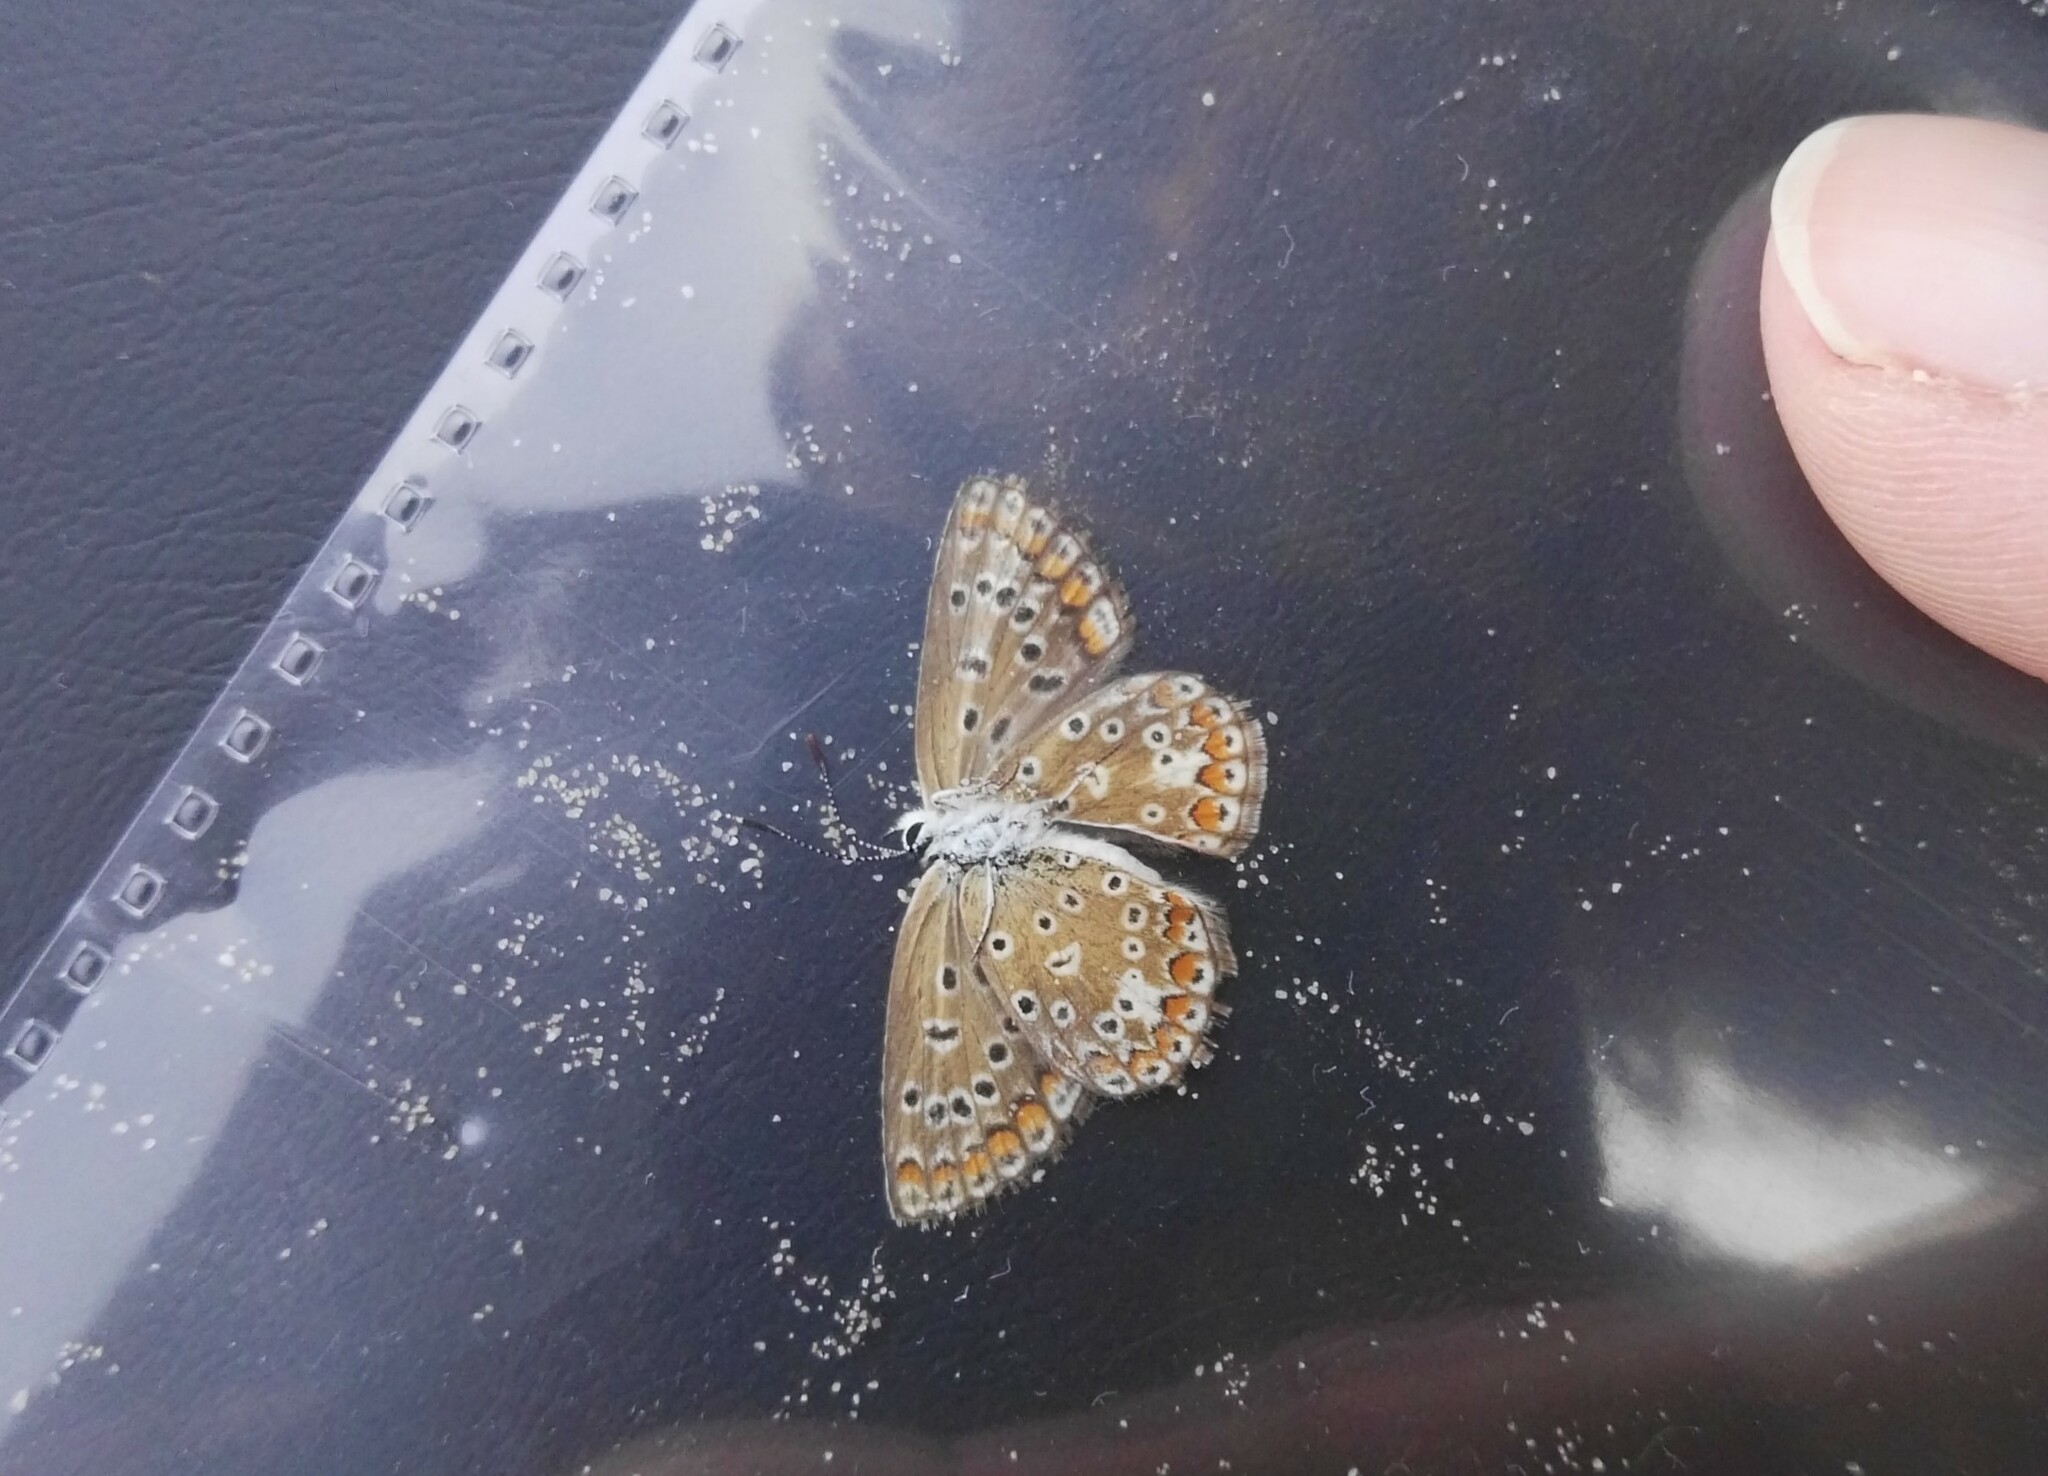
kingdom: Animalia
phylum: Arthropoda
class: Insecta
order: Lepidoptera
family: Lycaenidae
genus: Polyommatus
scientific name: Polyommatus icarus
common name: Common blue
